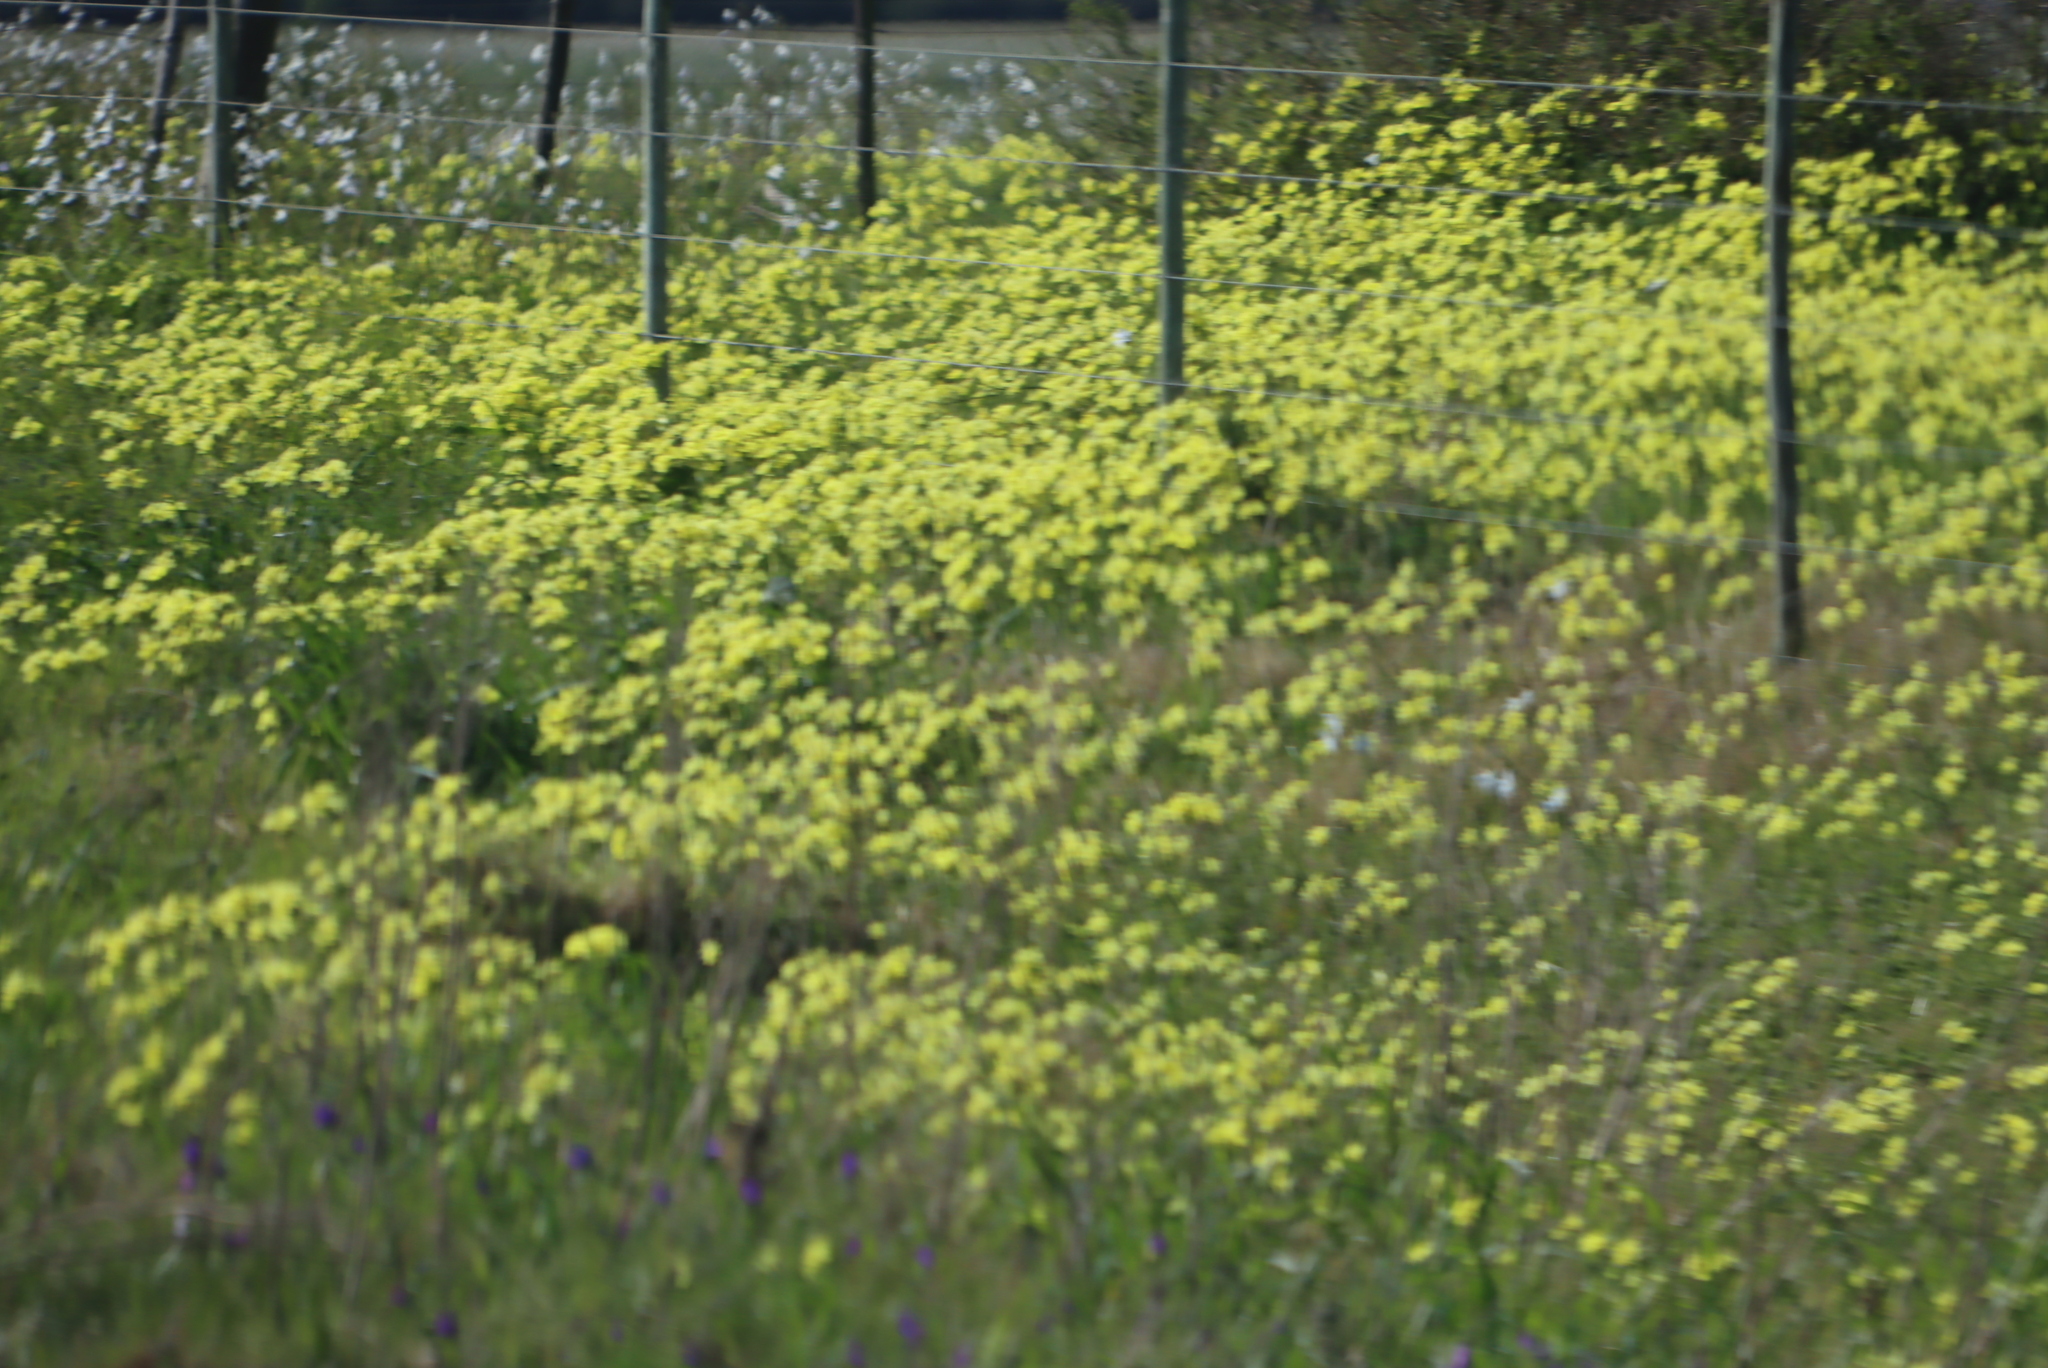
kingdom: Plantae
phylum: Tracheophyta
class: Magnoliopsida
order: Oxalidales
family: Oxalidaceae
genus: Oxalis
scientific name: Oxalis pes-caprae
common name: Bermuda-buttercup
